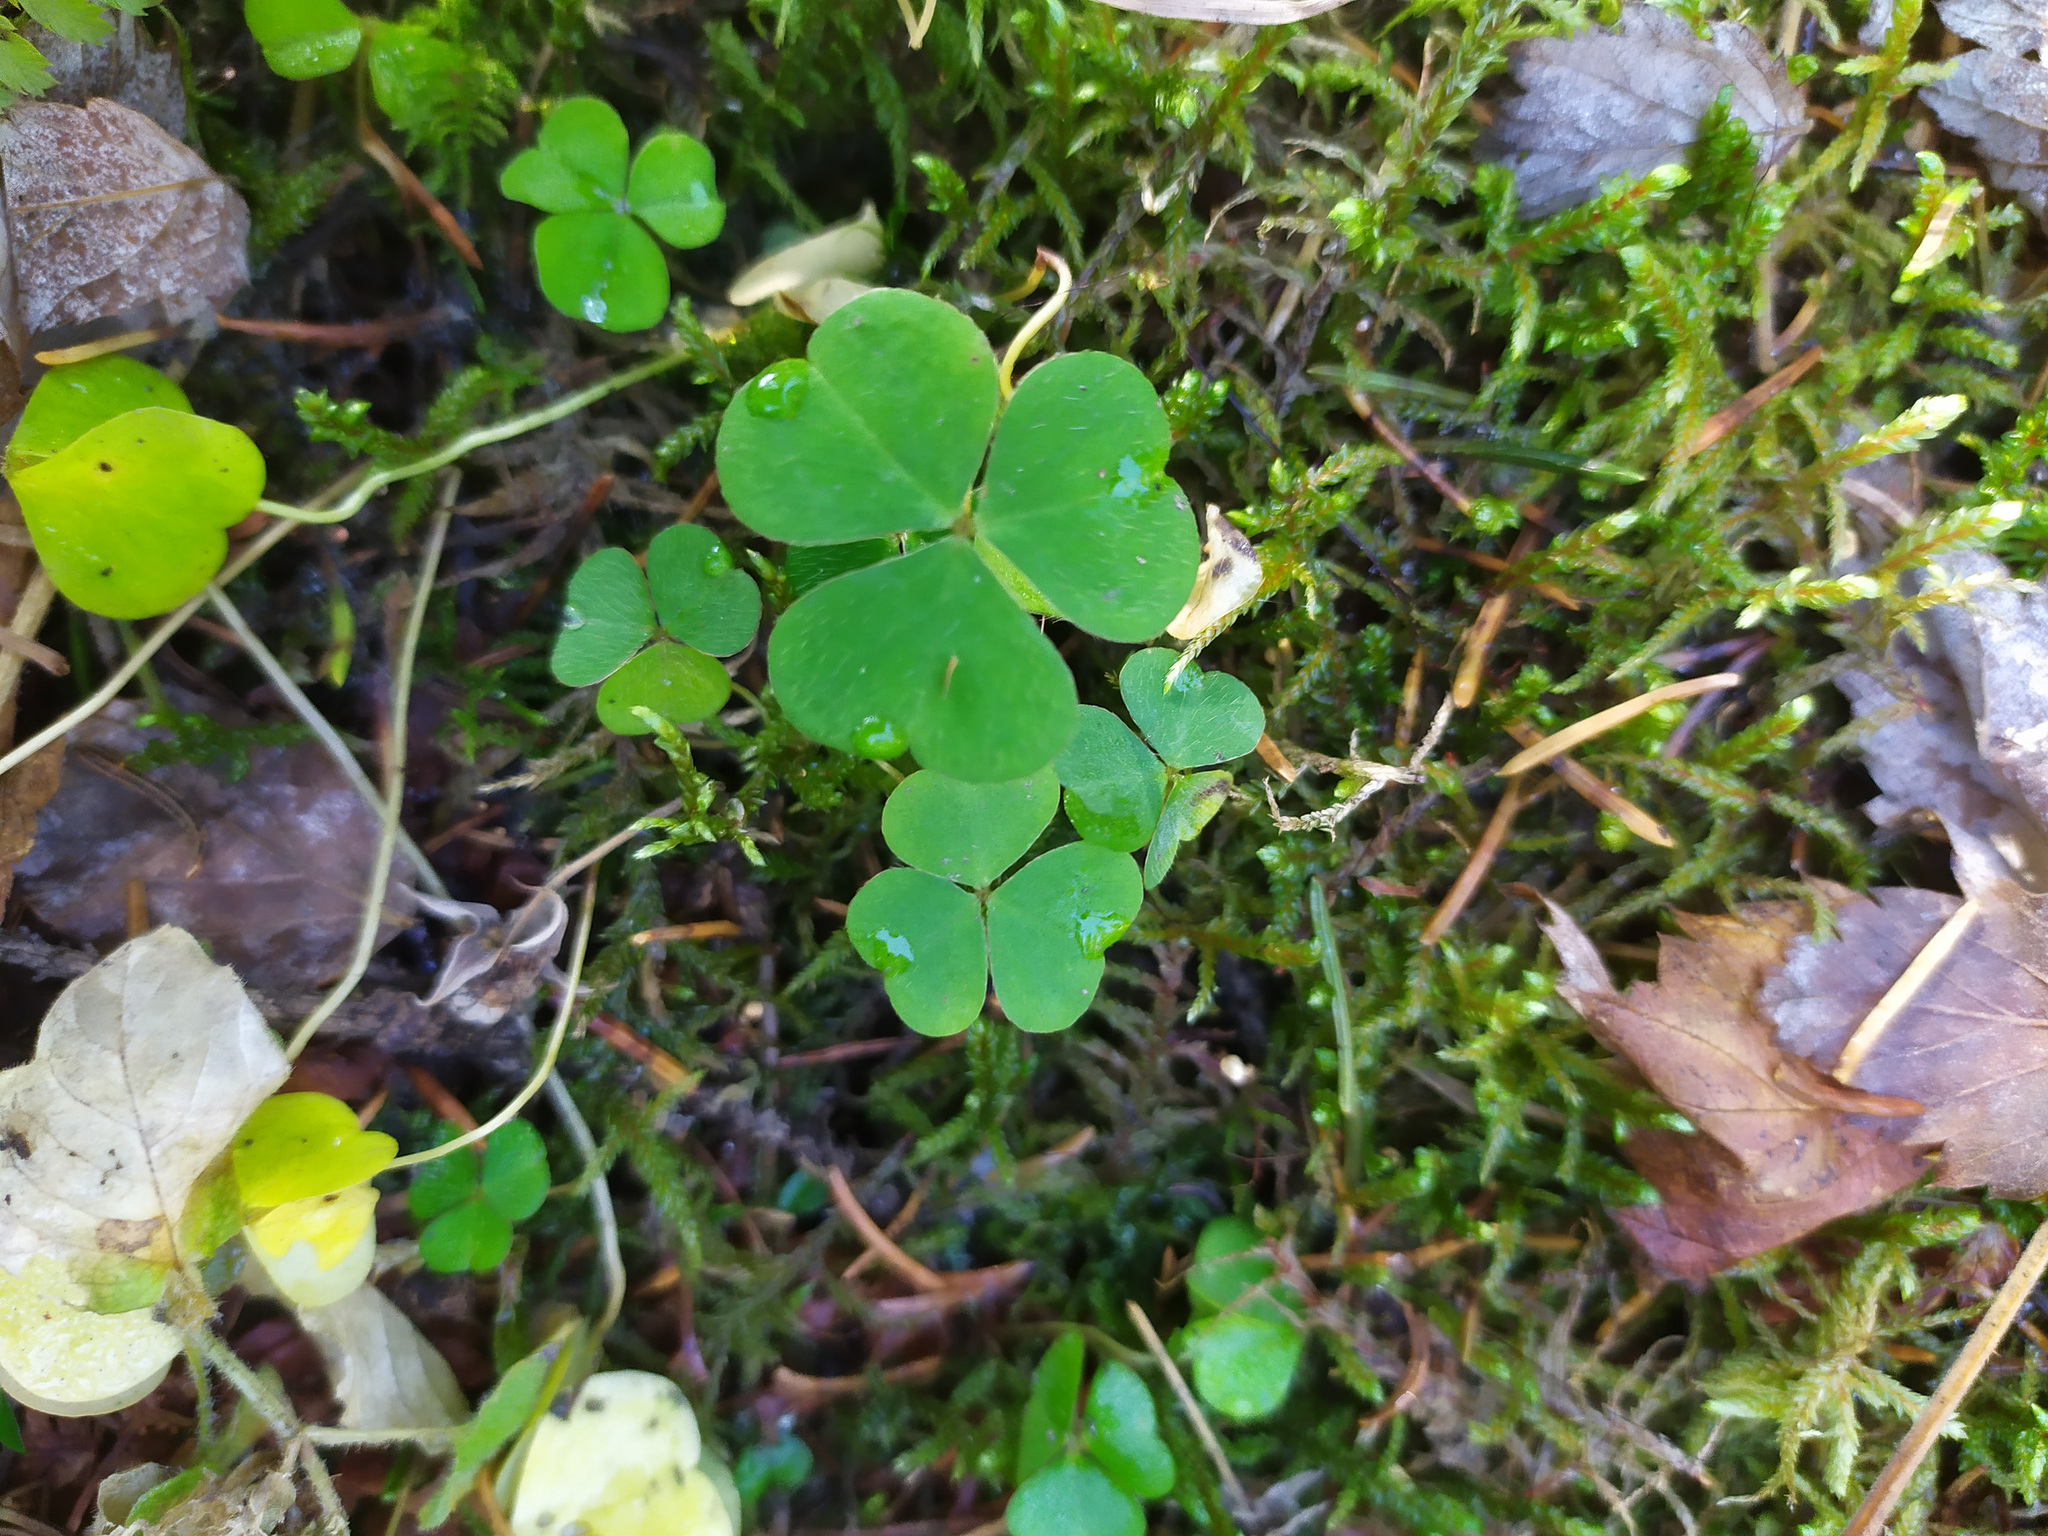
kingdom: Plantae
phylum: Tracheophyta
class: Magnoliopsida
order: Oxalidales
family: Oxalidaceae
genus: Oxalis
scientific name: Oxalis acetosella
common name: Wood-sorrel
